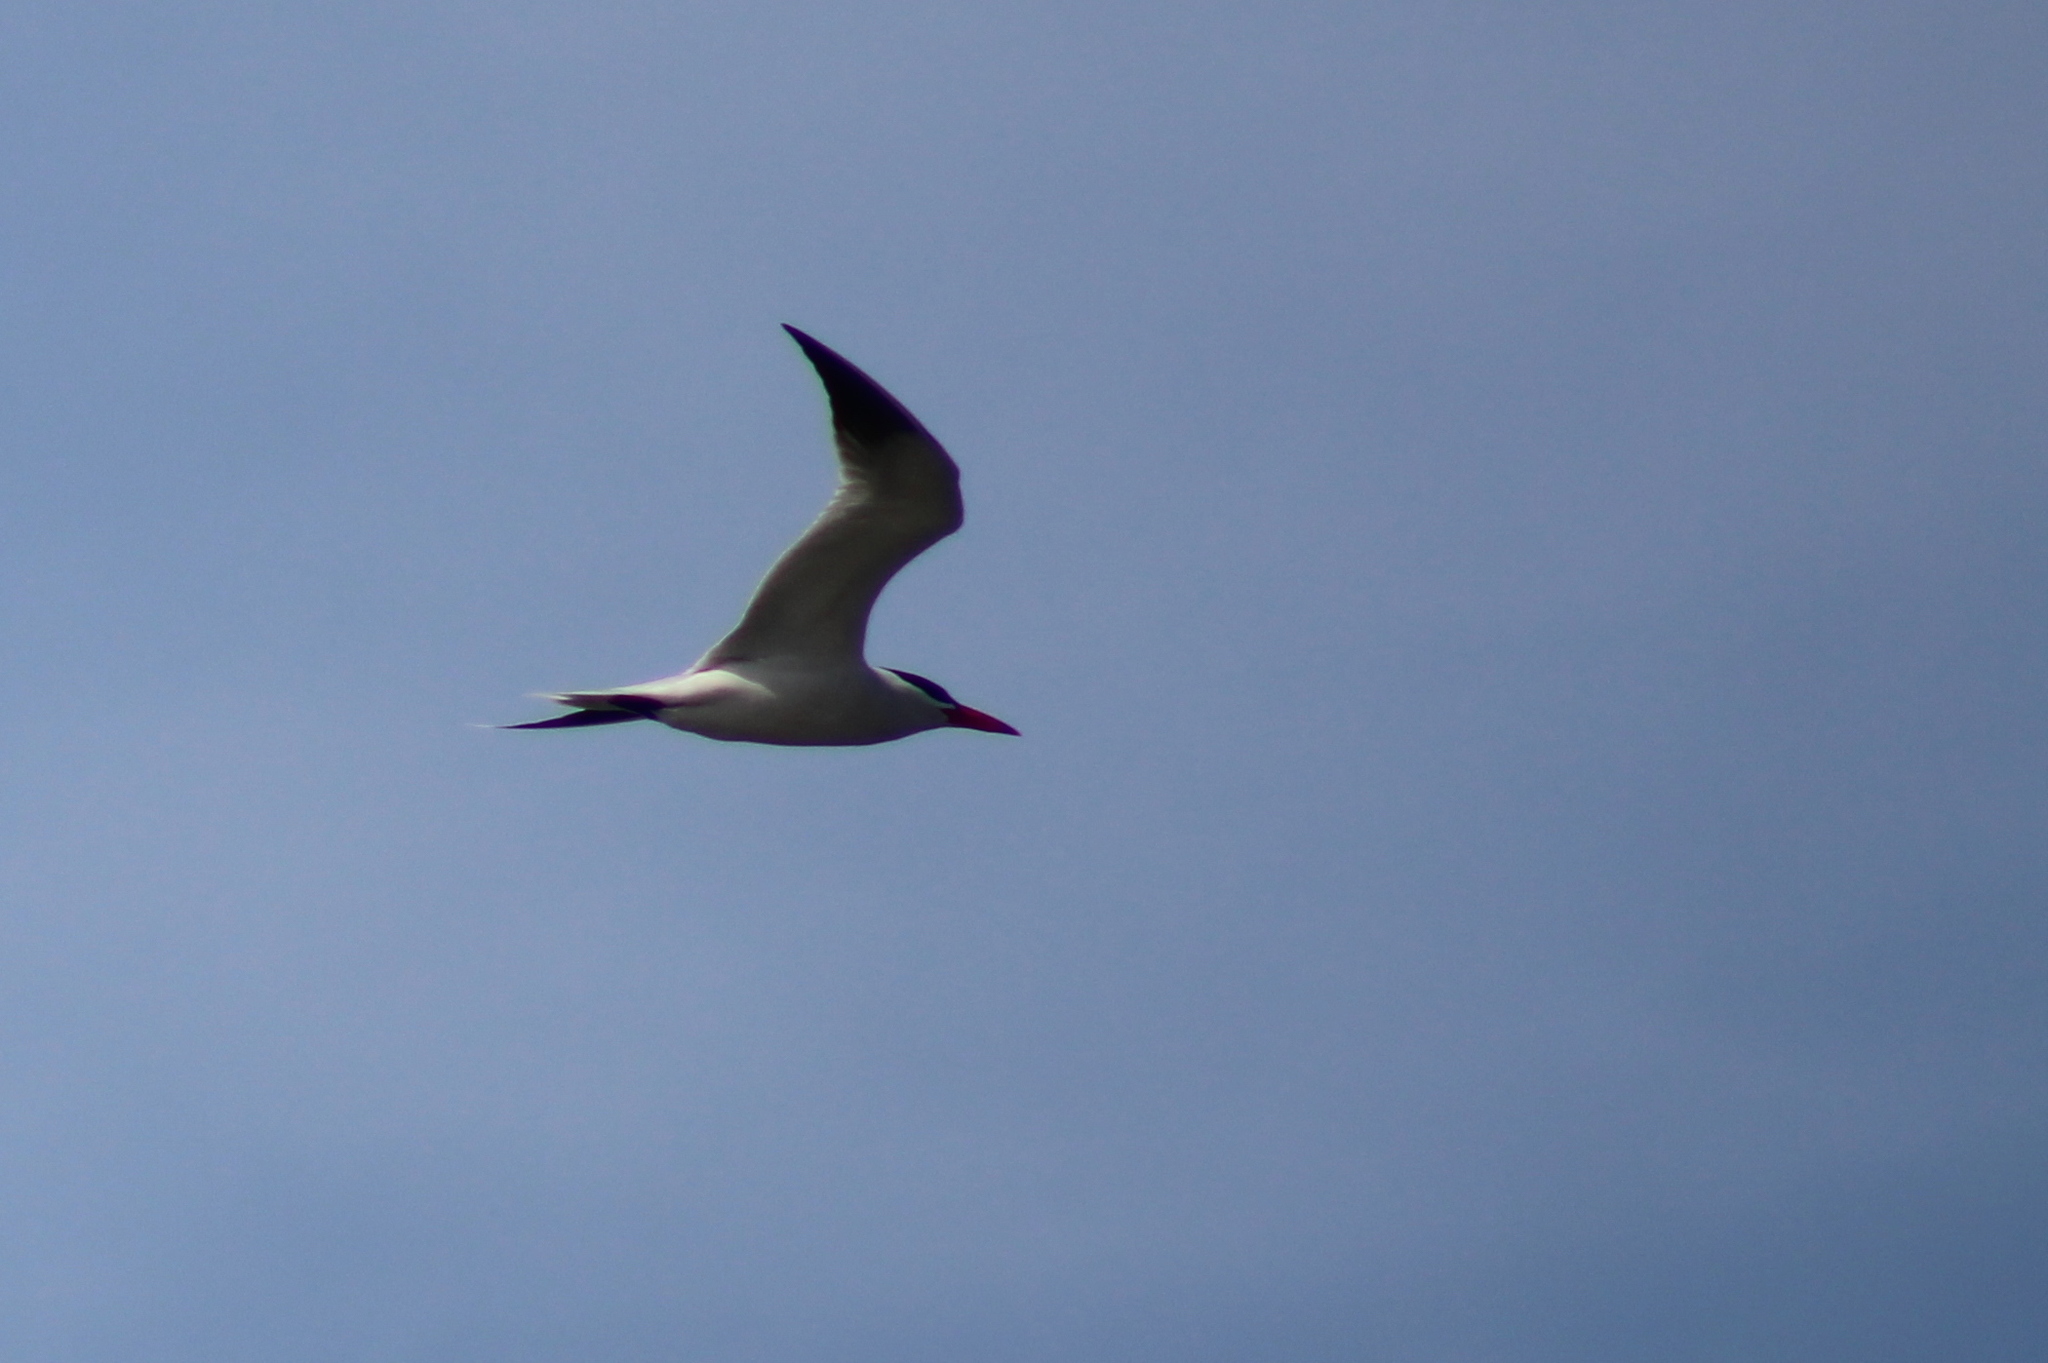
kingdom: Animalia
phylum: Chordata
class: Aves
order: Charadriiformes
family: Laridae
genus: Hydroprogne
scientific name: Hydroprogne caspia
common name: Caspian tern
